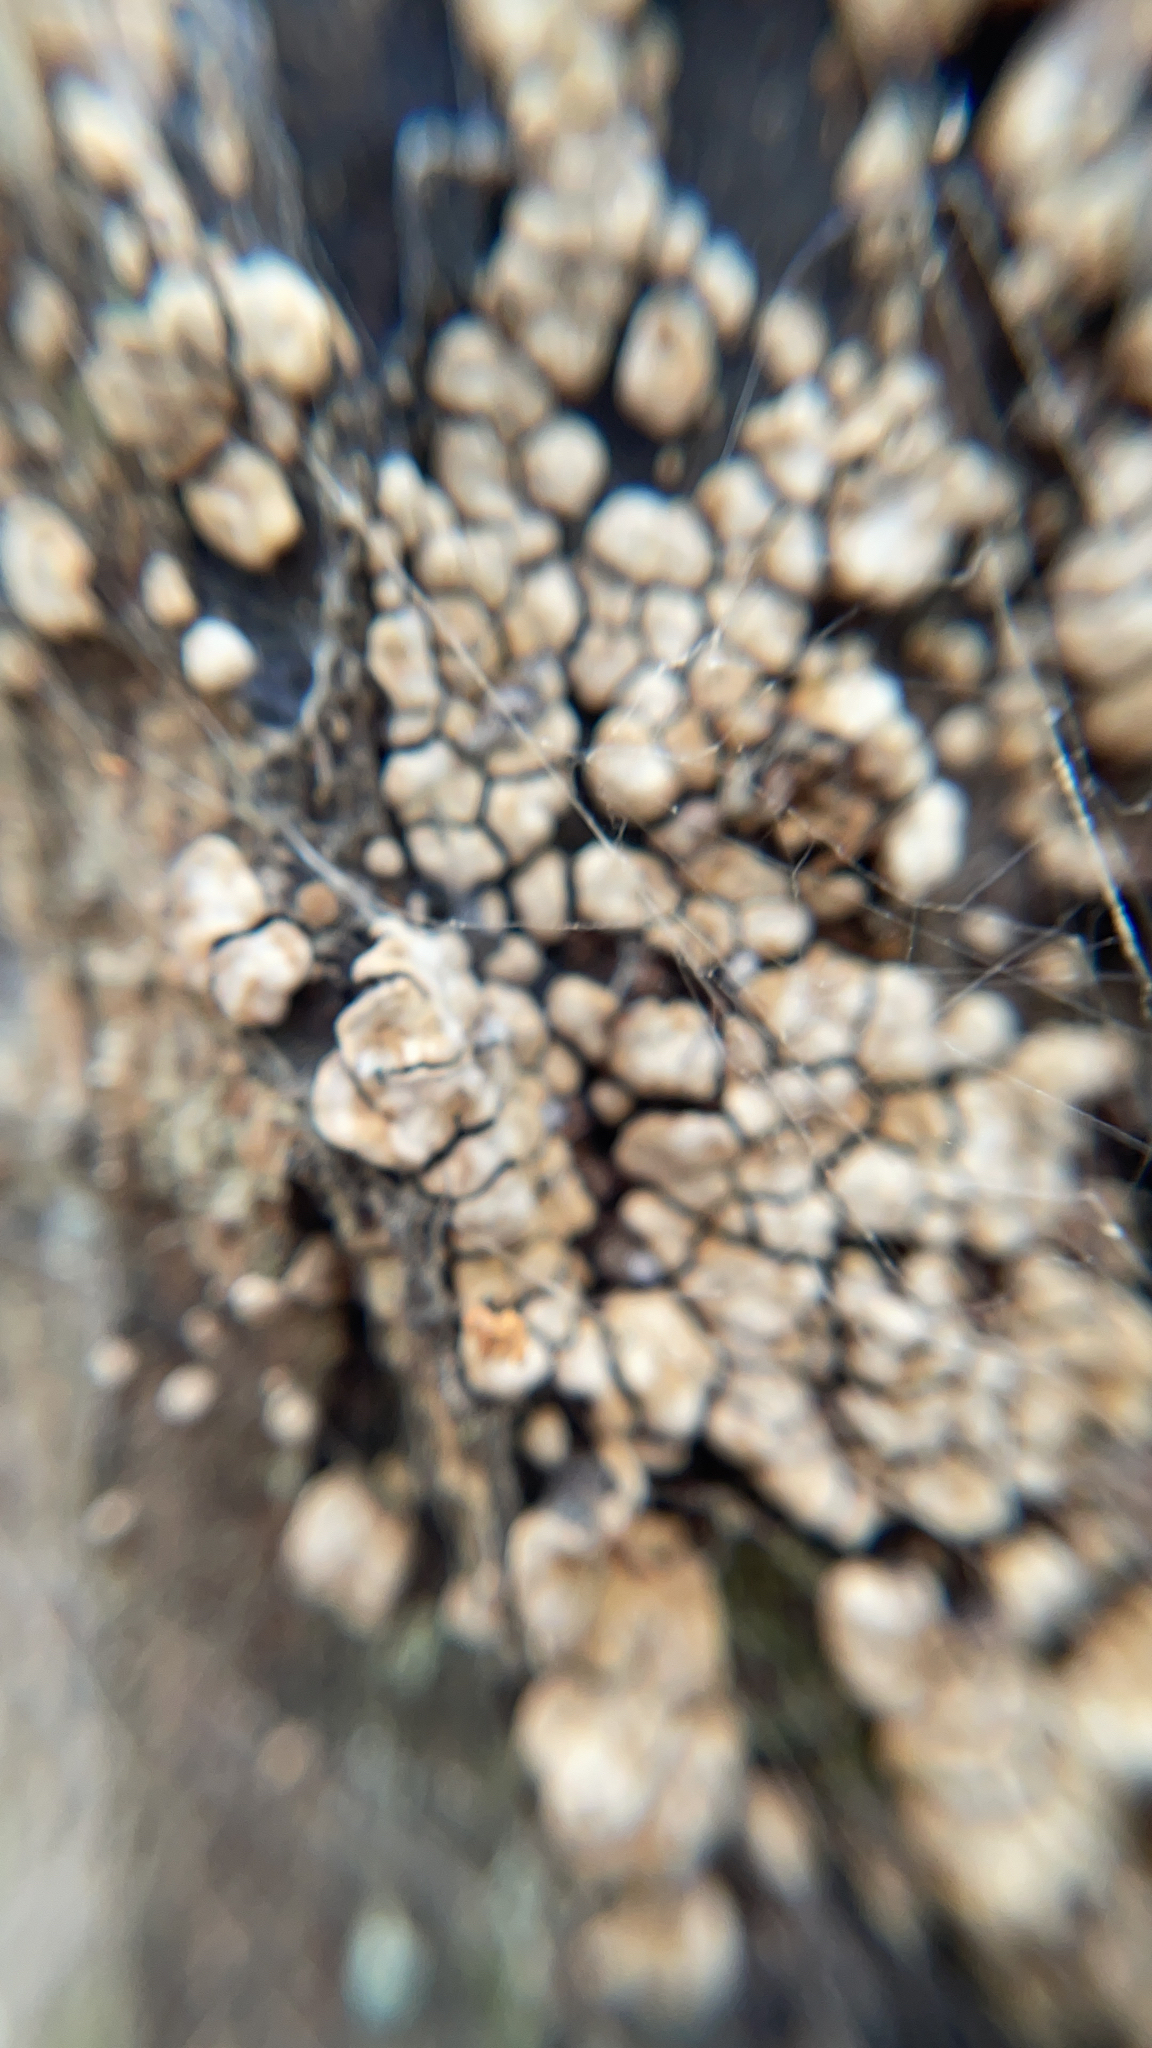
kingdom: Fungi
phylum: Basidiomycota
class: Agaricomycetes
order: Russulales
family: Stereaceae
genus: Xylobolus
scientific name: Xylobolus frustulatus
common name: Ceramic parchment
